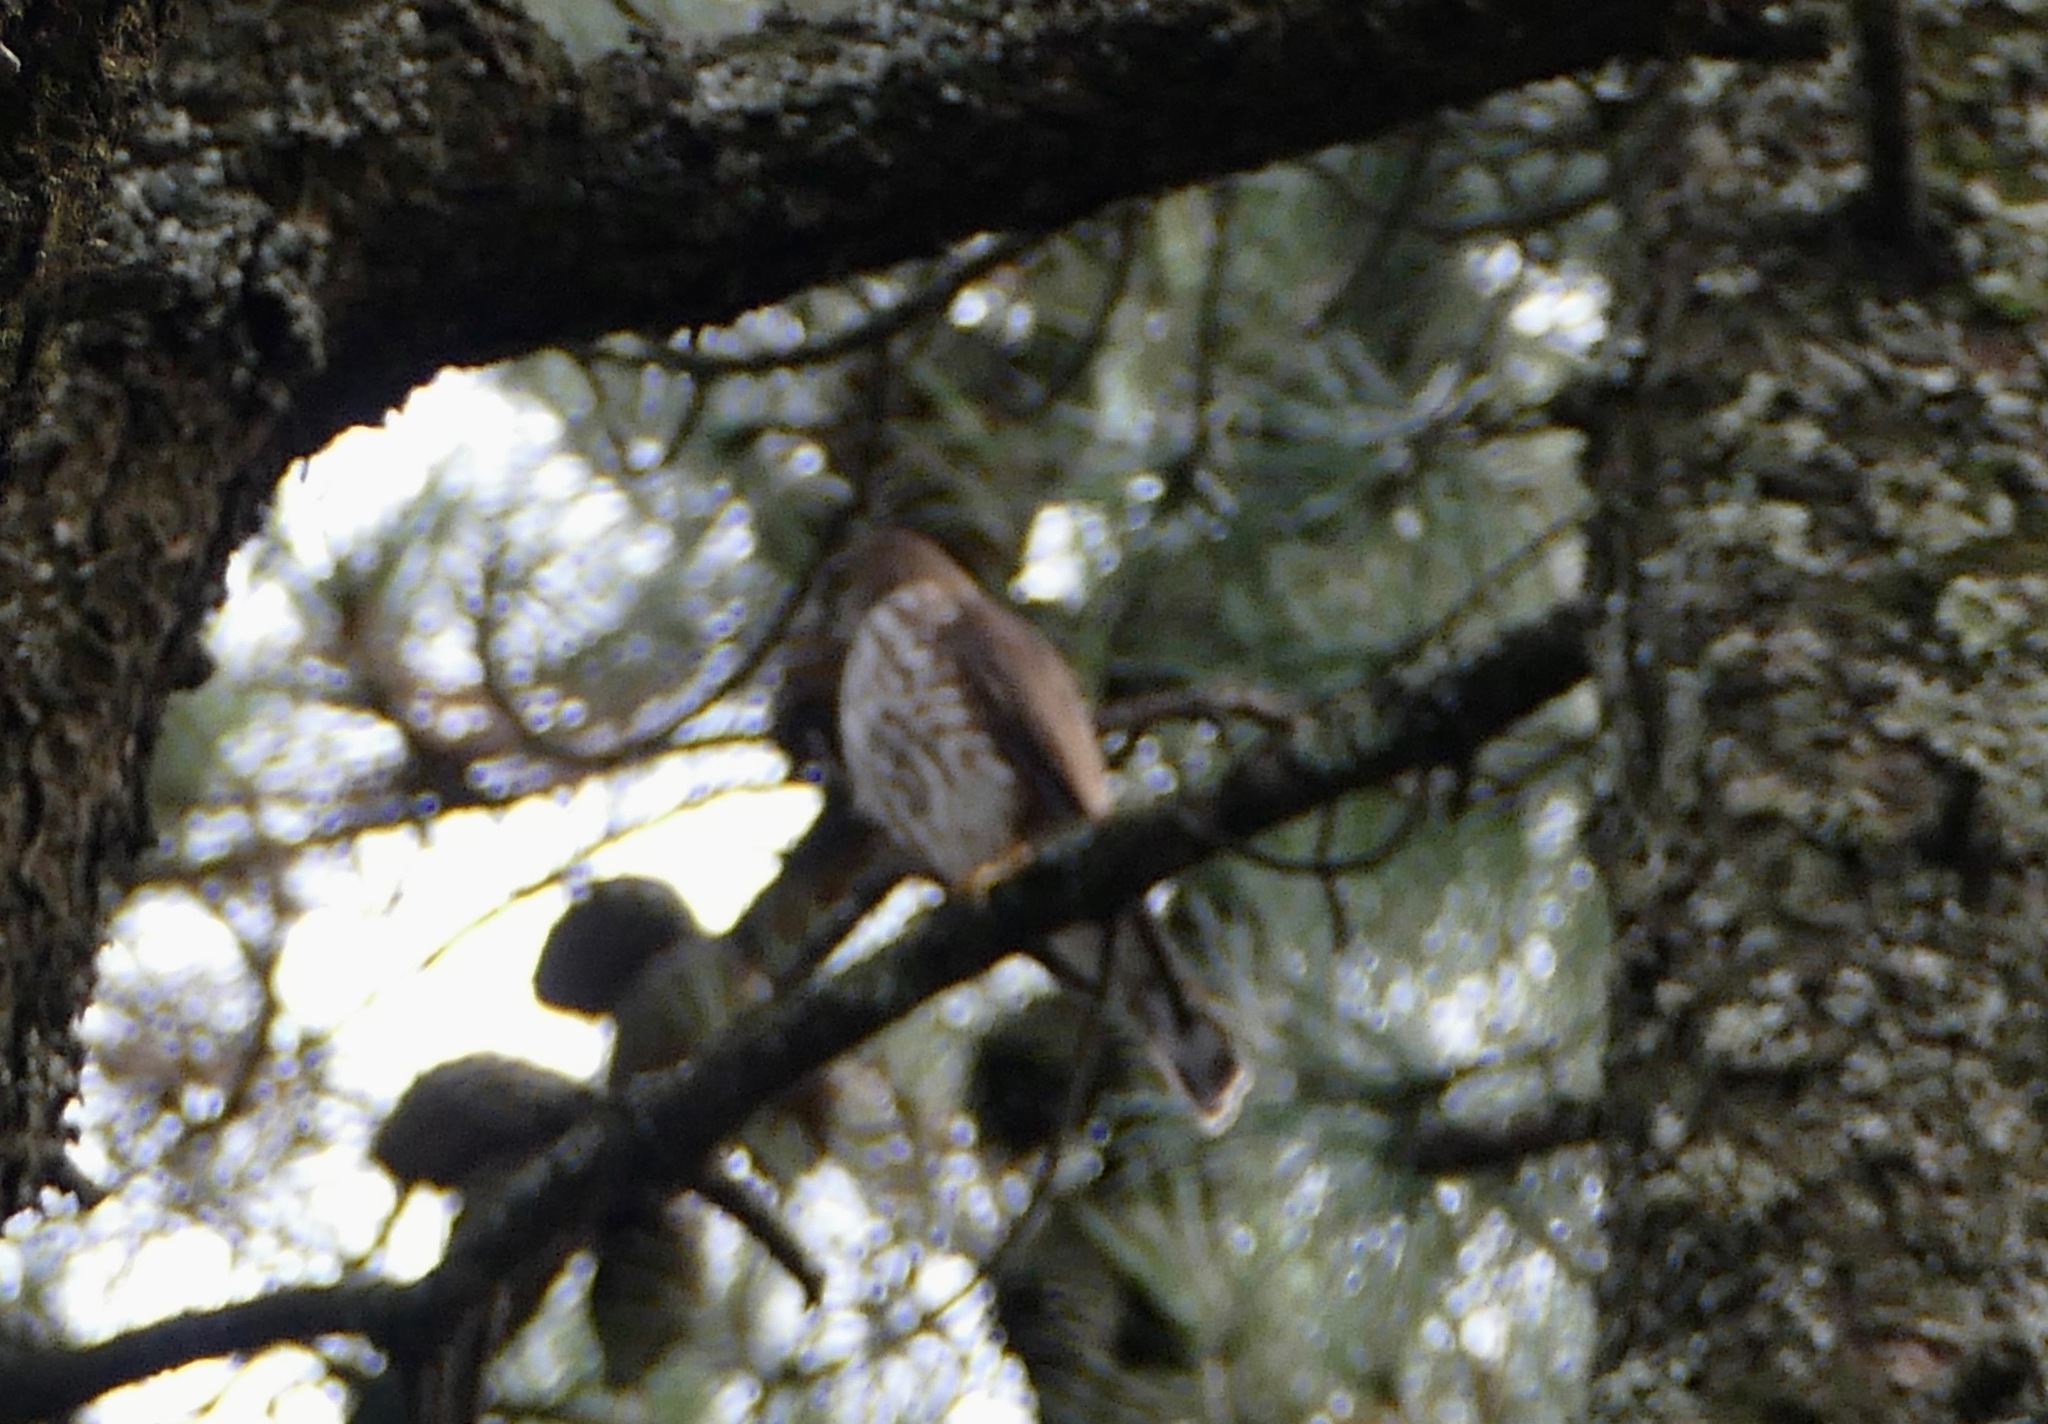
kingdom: Animalia
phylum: Chordata
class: Aves
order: Accipitriformes
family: Accipitridae
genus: Accipiter
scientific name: Accipiter striatus
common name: Sharp-shinned hawk
